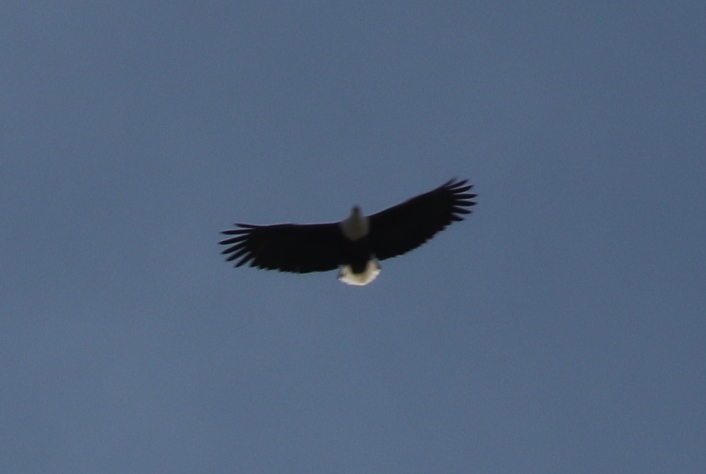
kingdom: Animalia
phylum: Chordata
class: Aves
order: Accipitriformes
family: Accipitridae
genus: Haliaeetus
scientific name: Haliaeetus vocifer
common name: African fish eagle
